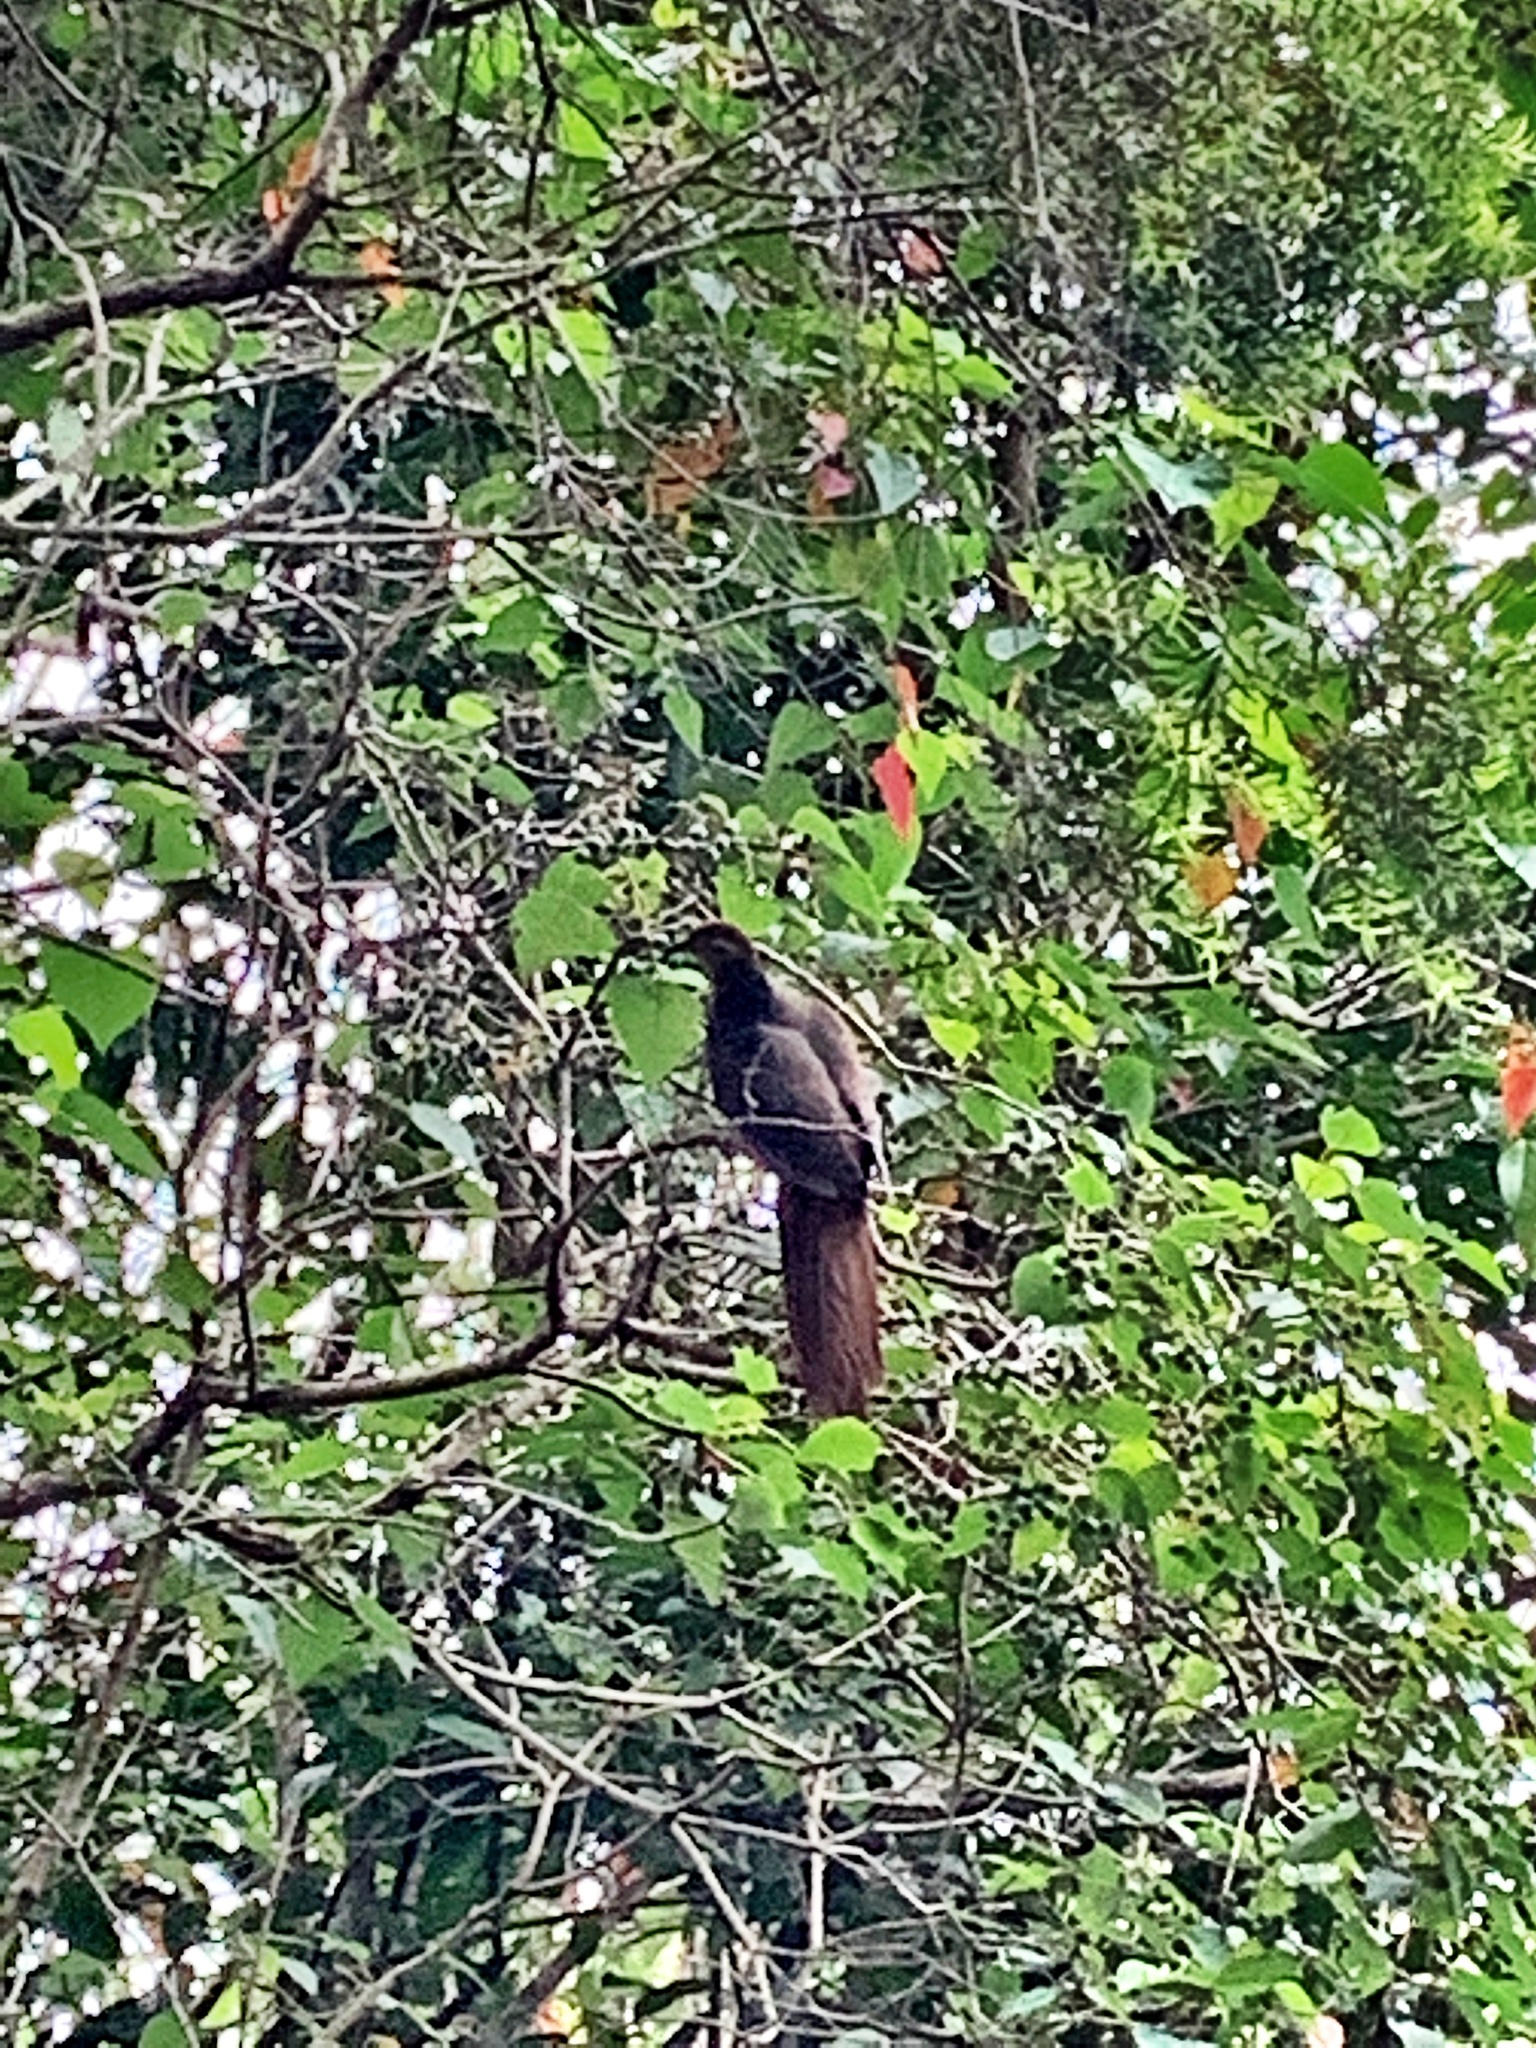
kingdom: Animalia
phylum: Chordata
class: Aves
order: Columbiformes
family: Columbidae
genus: Macropygia
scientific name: Macropygia phasianella
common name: Brown cuckoo-dove
